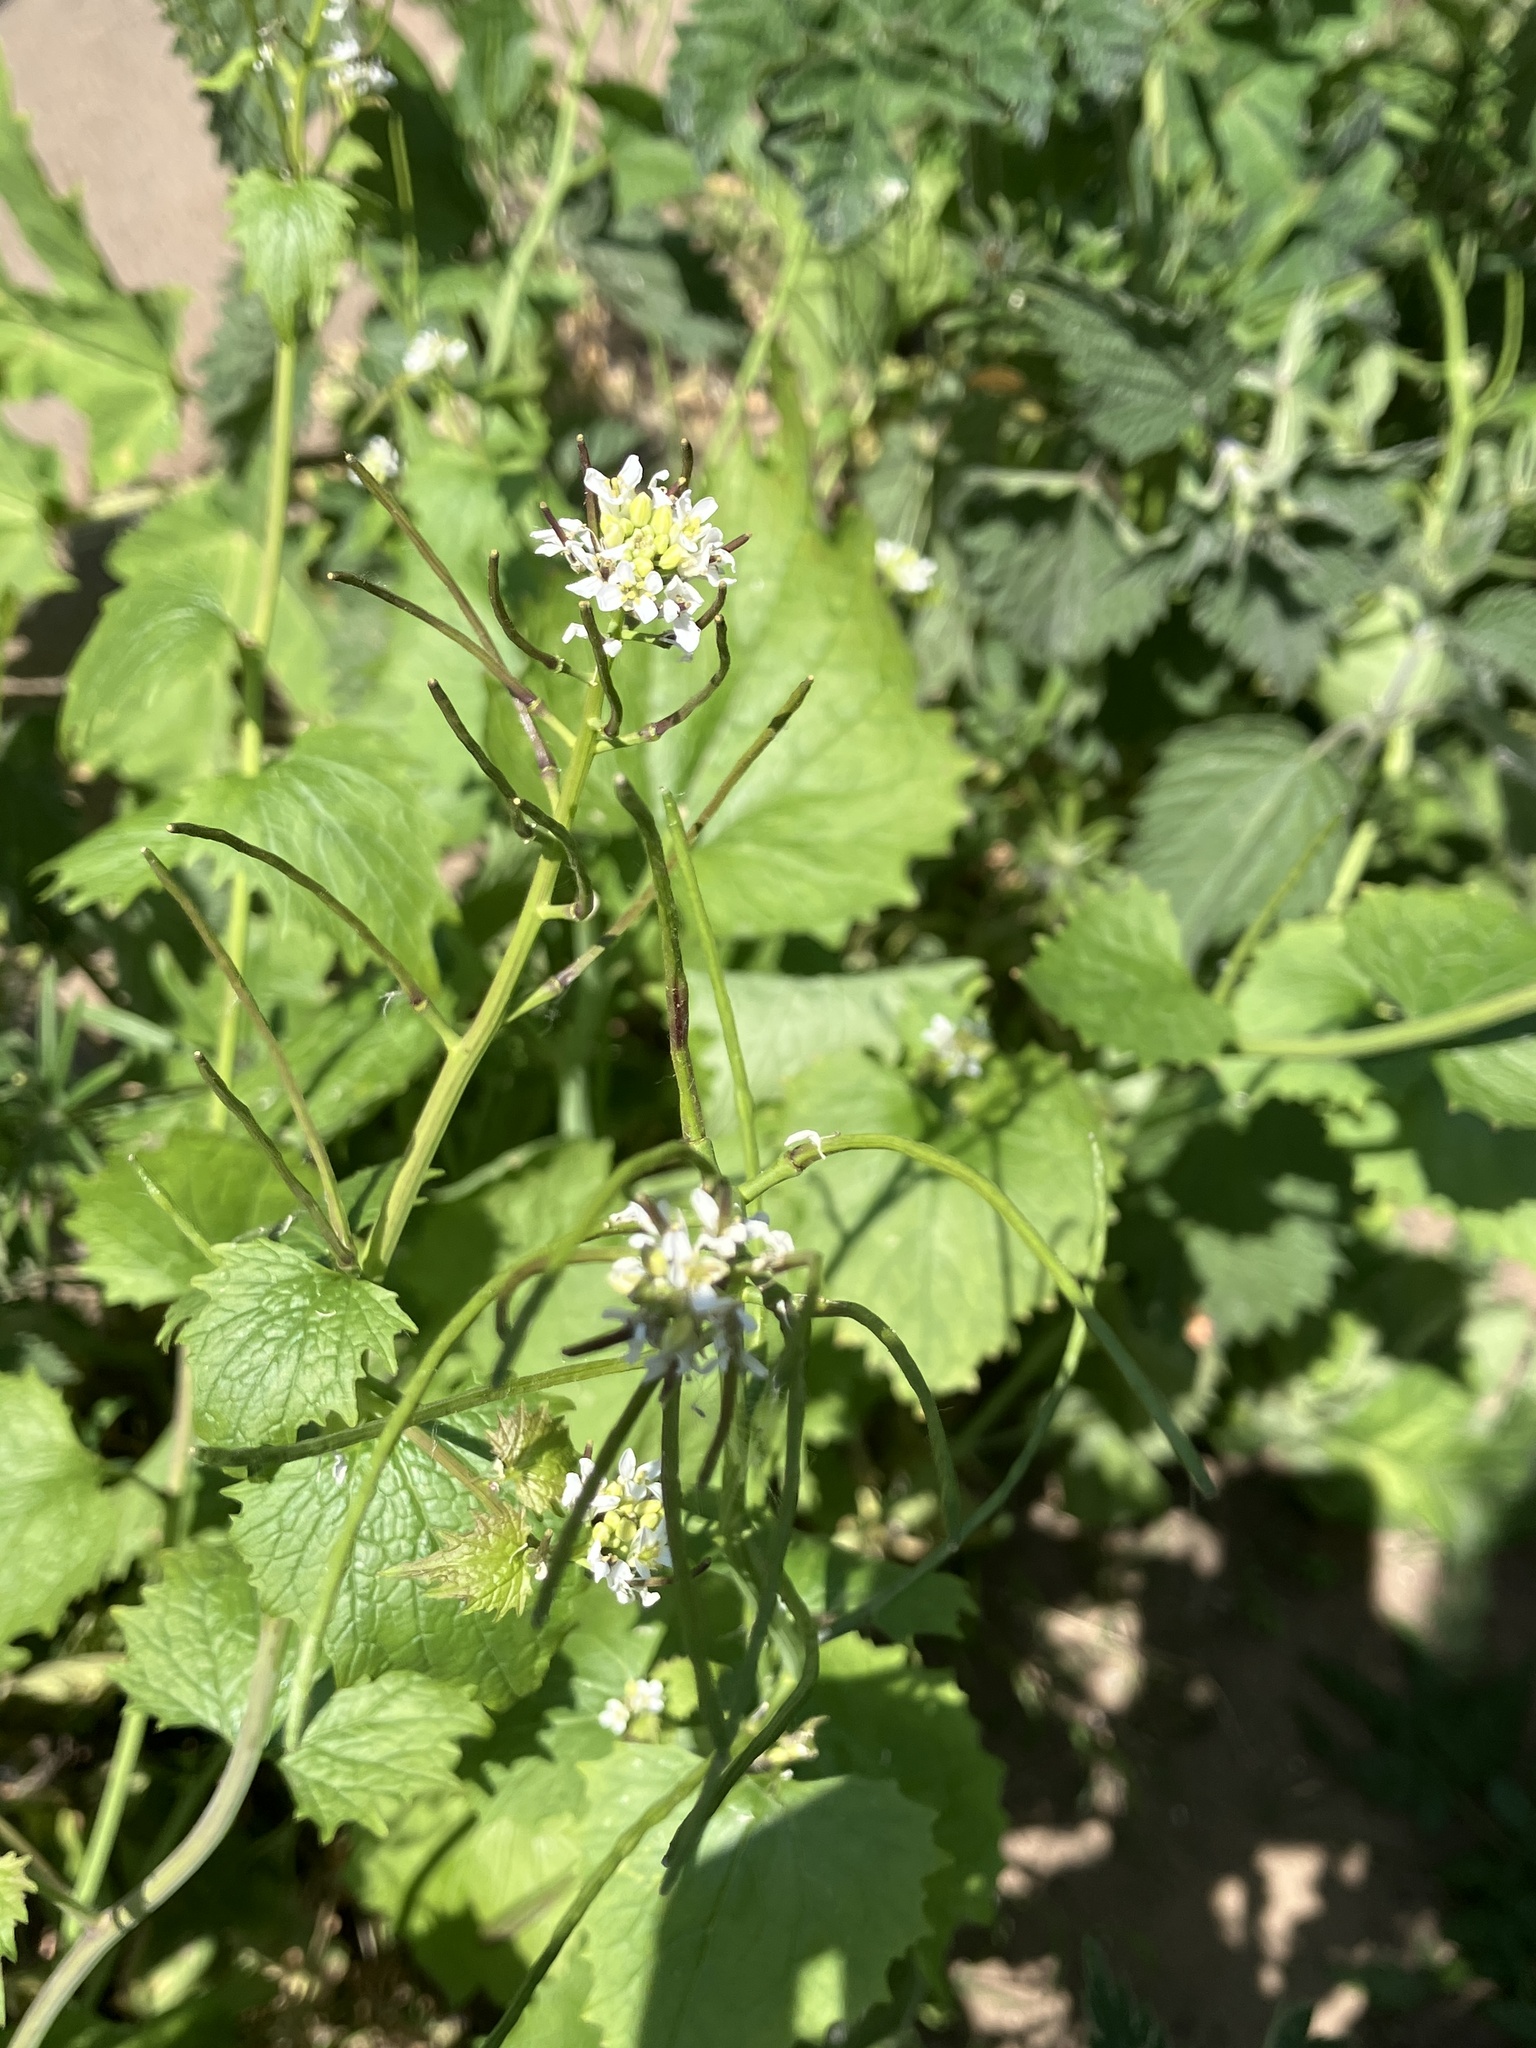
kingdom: Plantae
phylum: Tracheophyta
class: Magnoliopsida
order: Brassicales
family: Brassicaceae
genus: Alliaria
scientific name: Alliaria petiolata
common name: Garlic mustard
